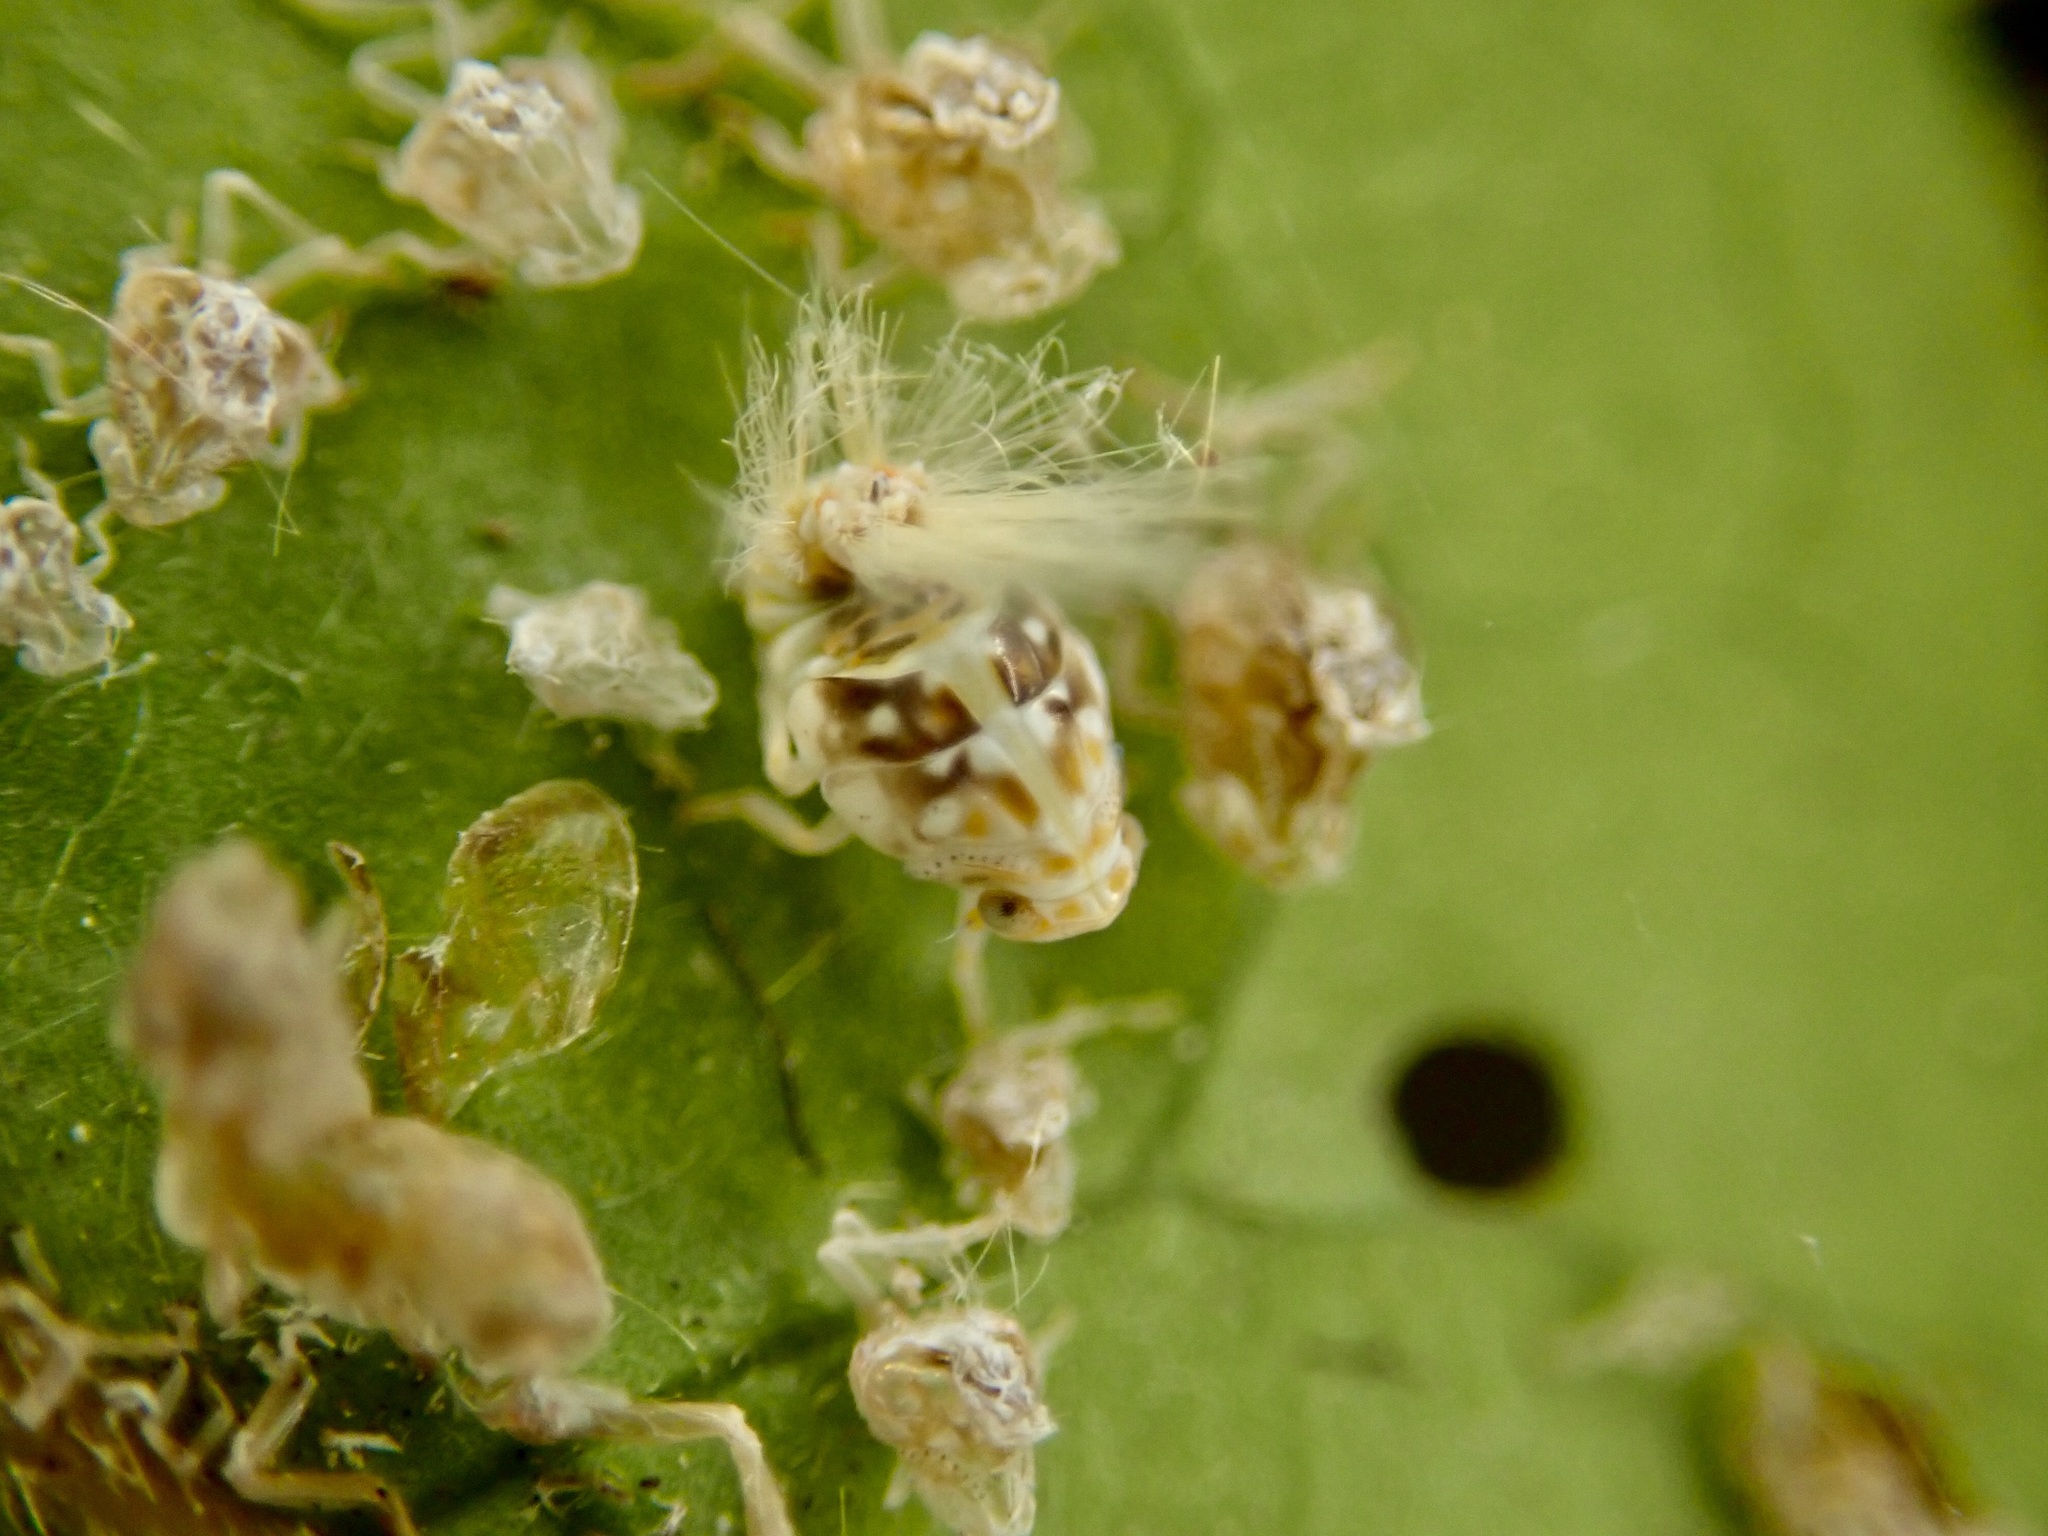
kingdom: Animalia
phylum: Arthropoda
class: Insecta
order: Hemiptera
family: Ricaniidae
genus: Scolypopa
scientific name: Scolypopa australis
